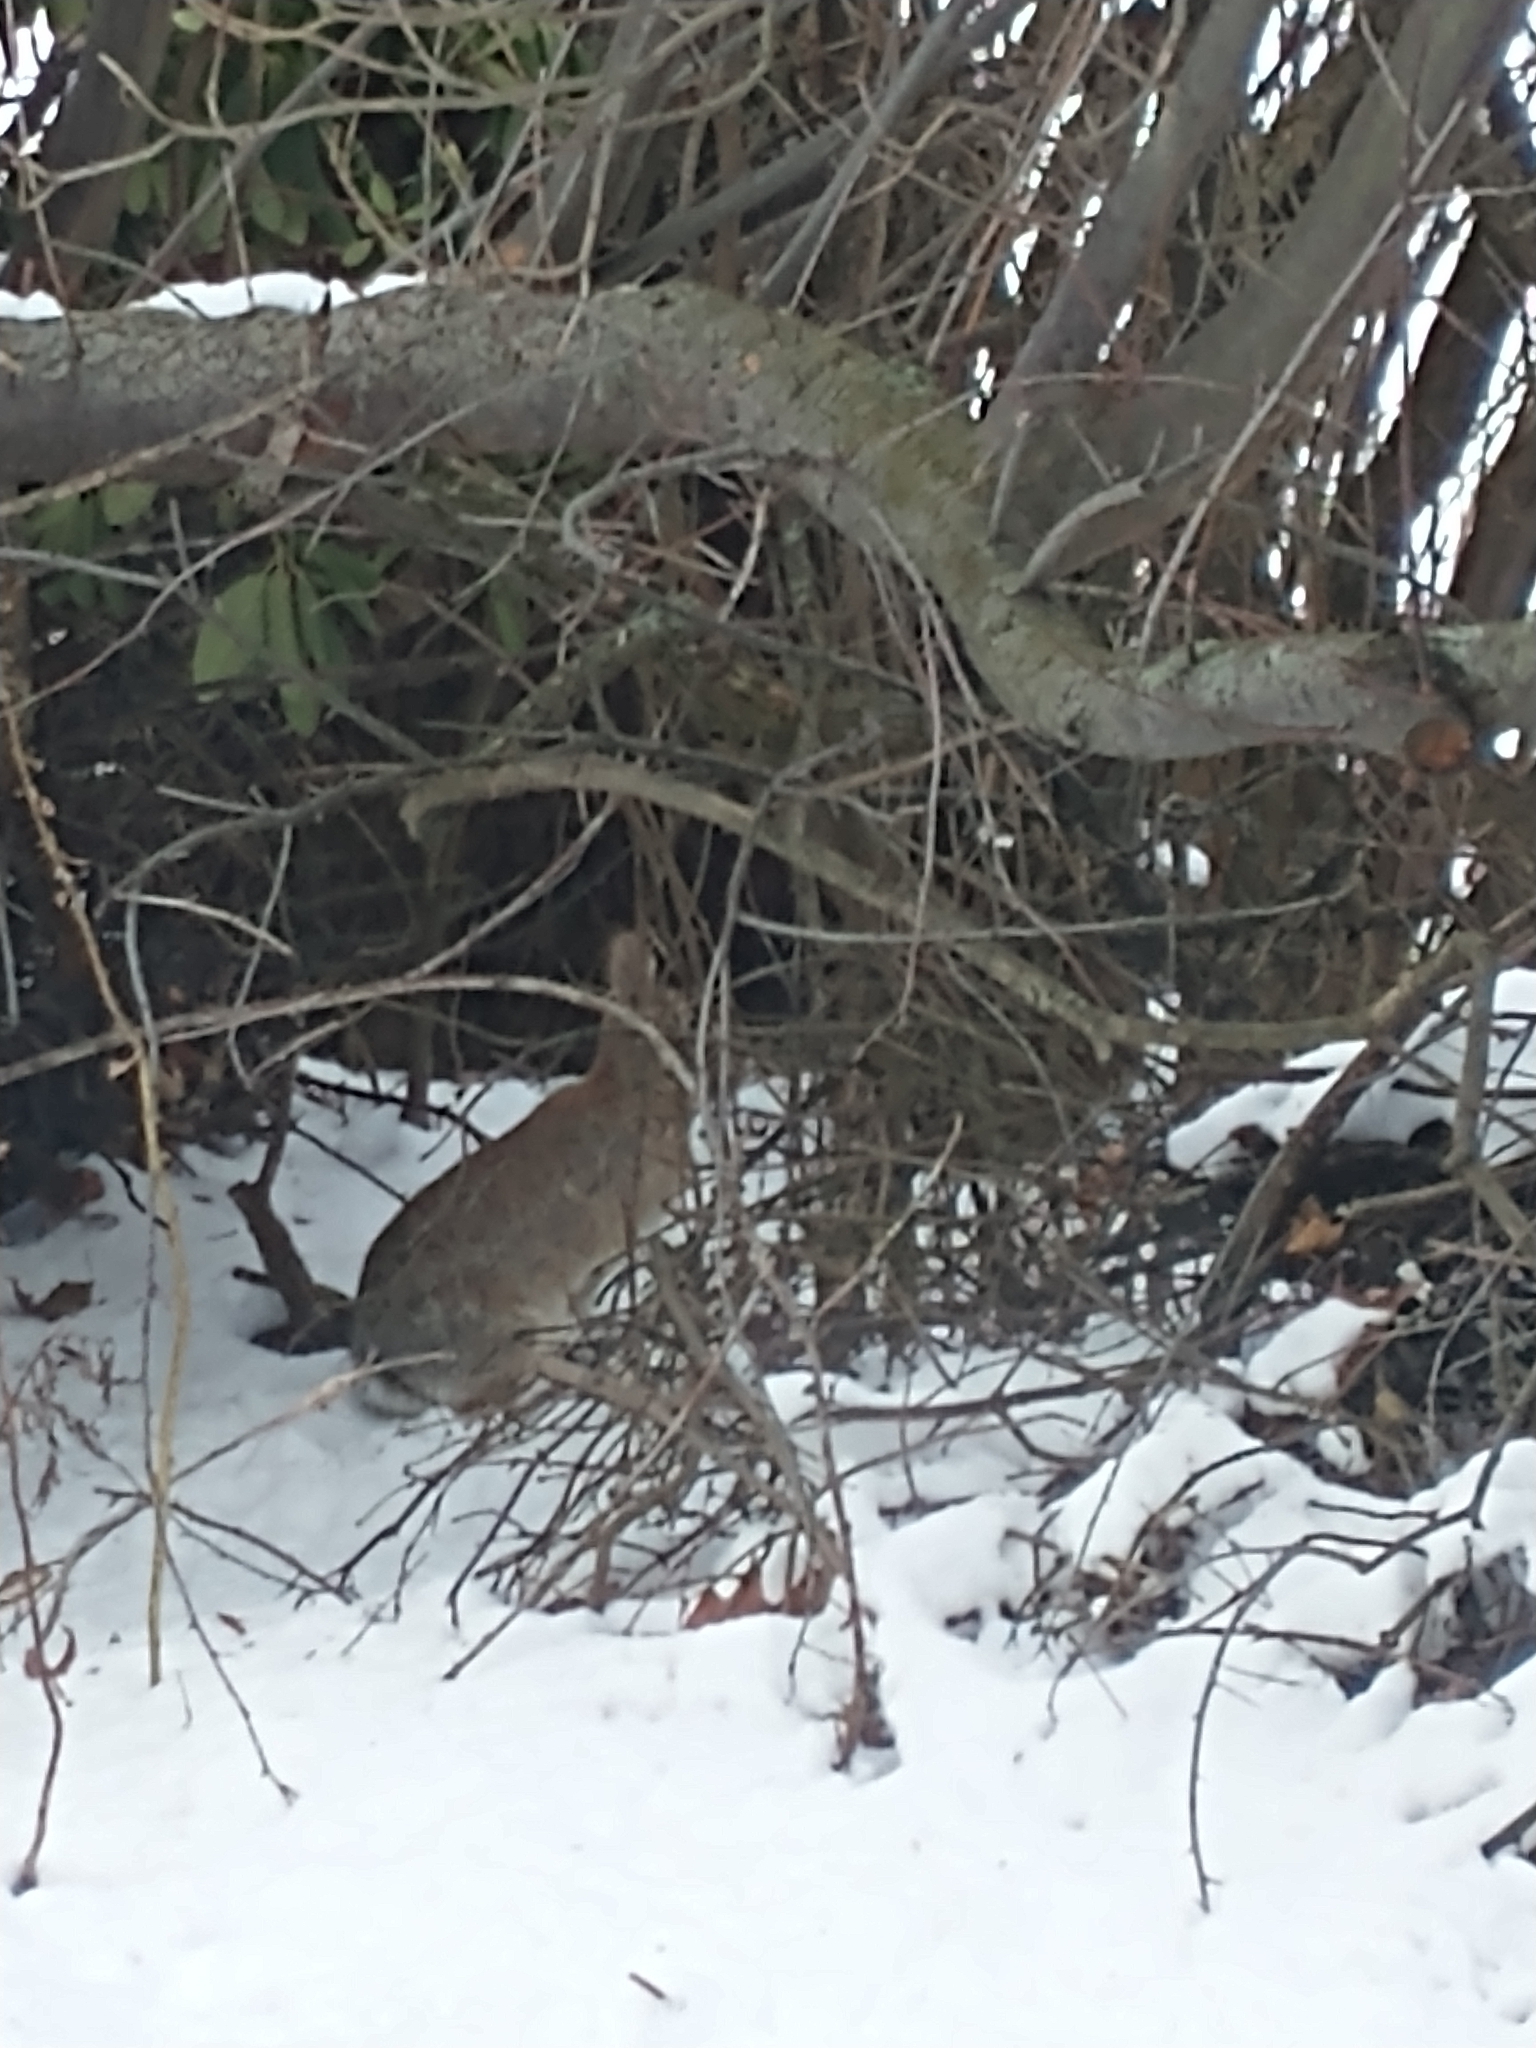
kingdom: Animalia
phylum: Chordata
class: Mammalia
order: Lagomorpha
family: Leporidae
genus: Sylvilagus
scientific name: Sylvilagus floridanus
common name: Eastern cottontail
